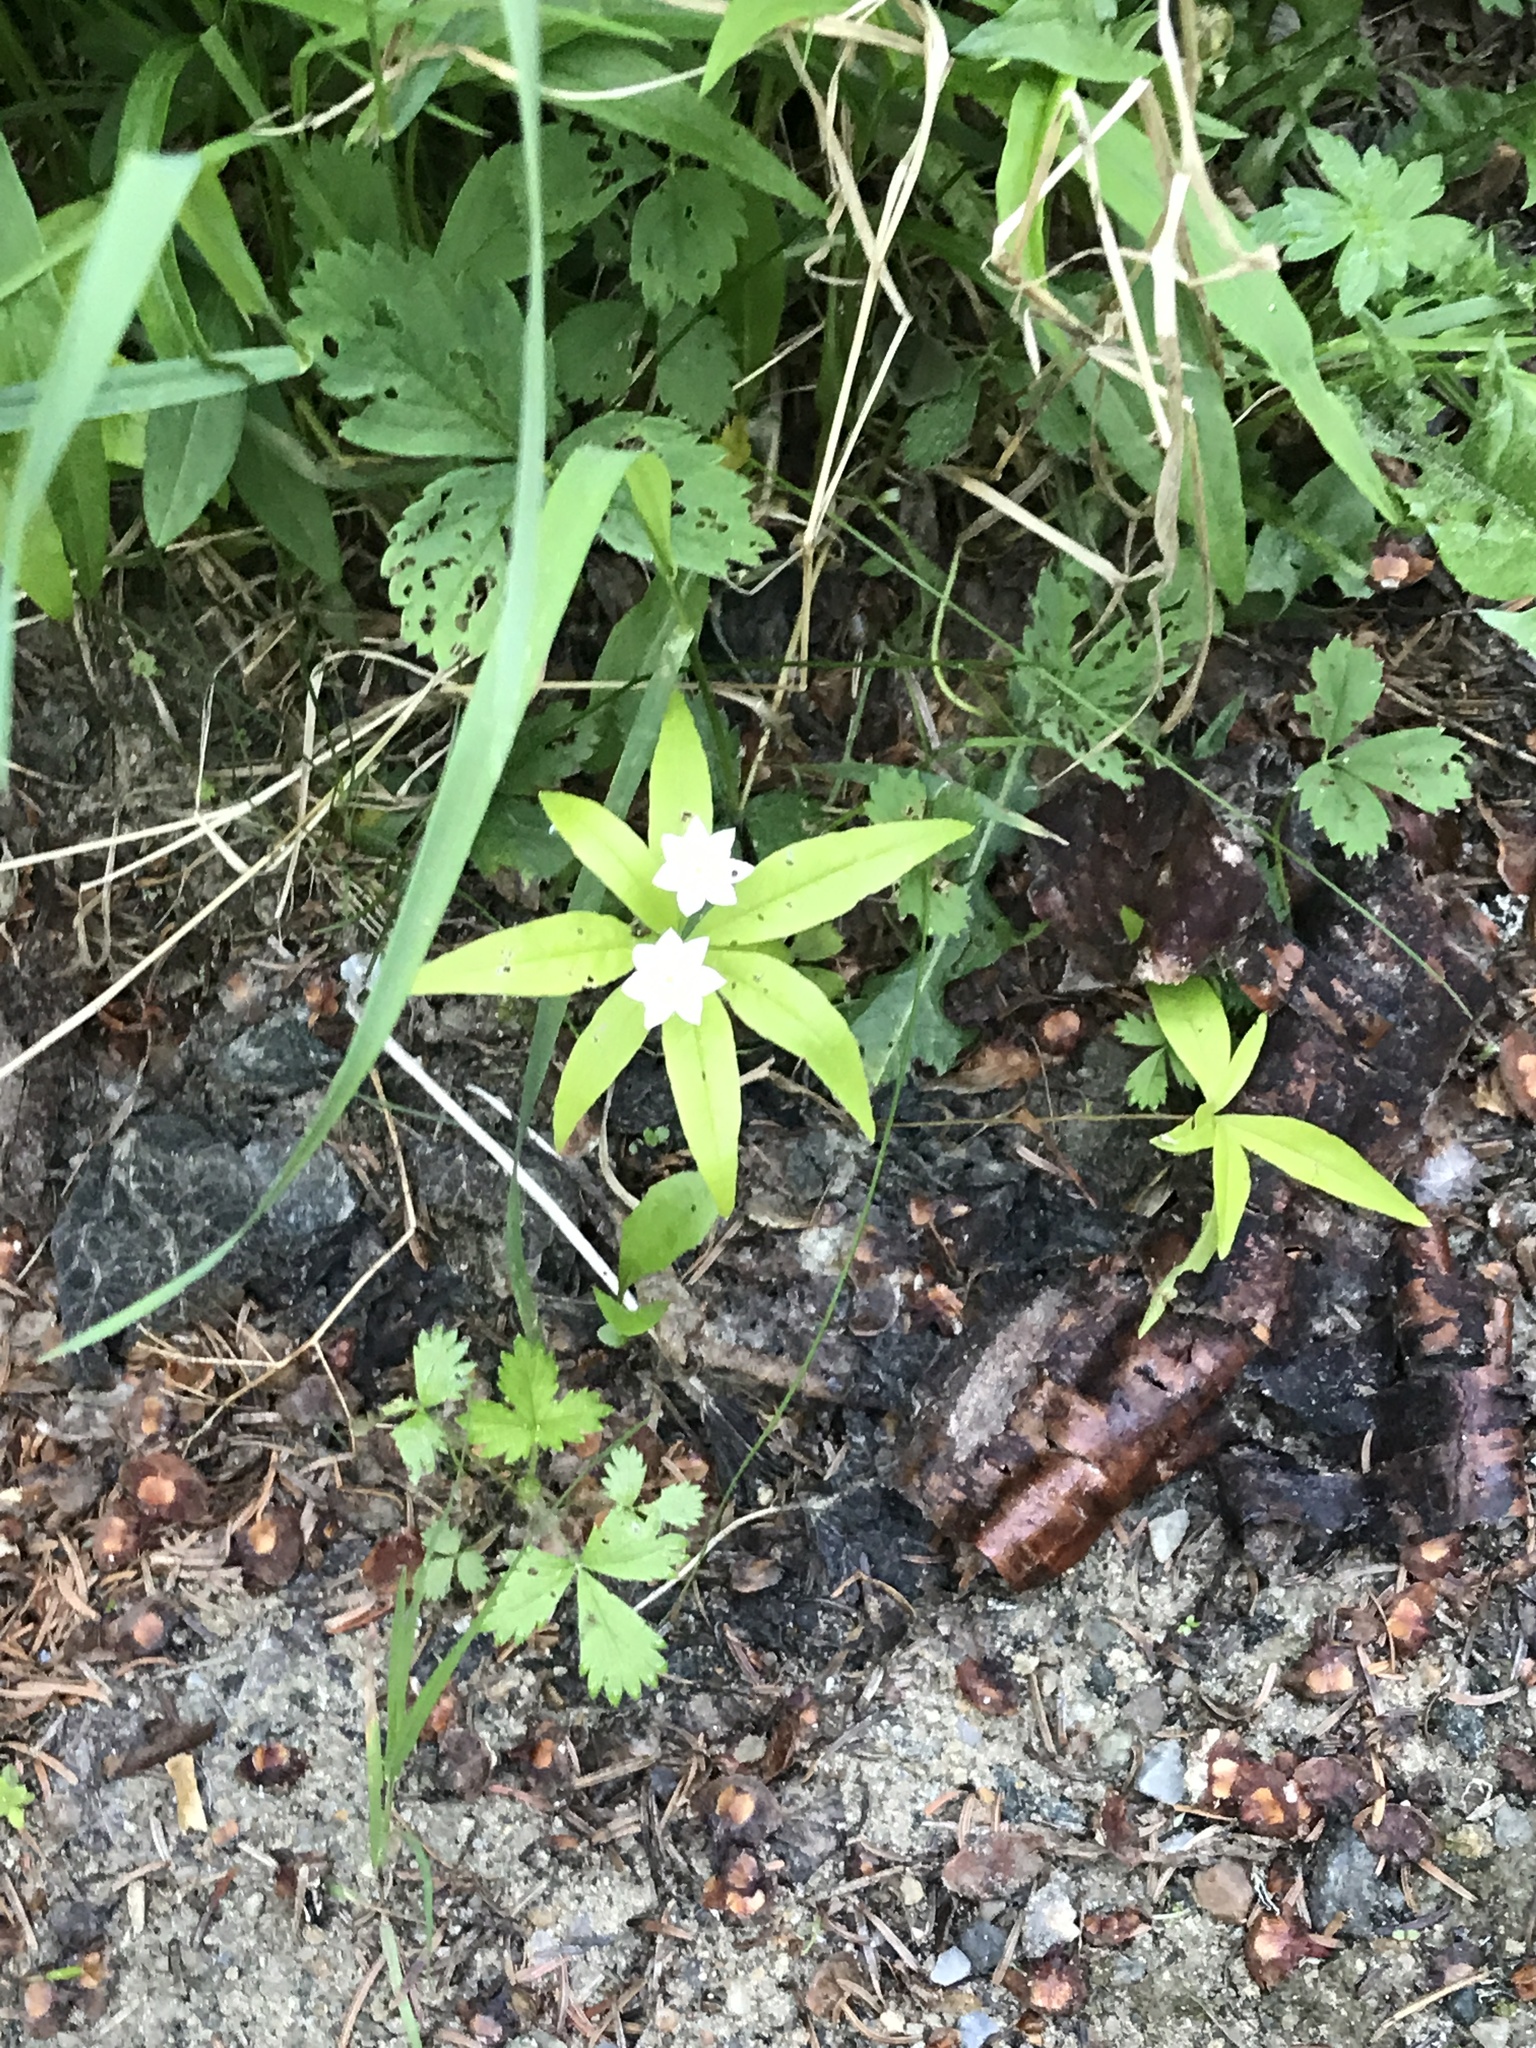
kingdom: Plantae
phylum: Tracheophyta
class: Magnoliopsida
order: Ericales
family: Primulaceae
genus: Lysimachia
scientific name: Lysimachia borealis
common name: American starflower
